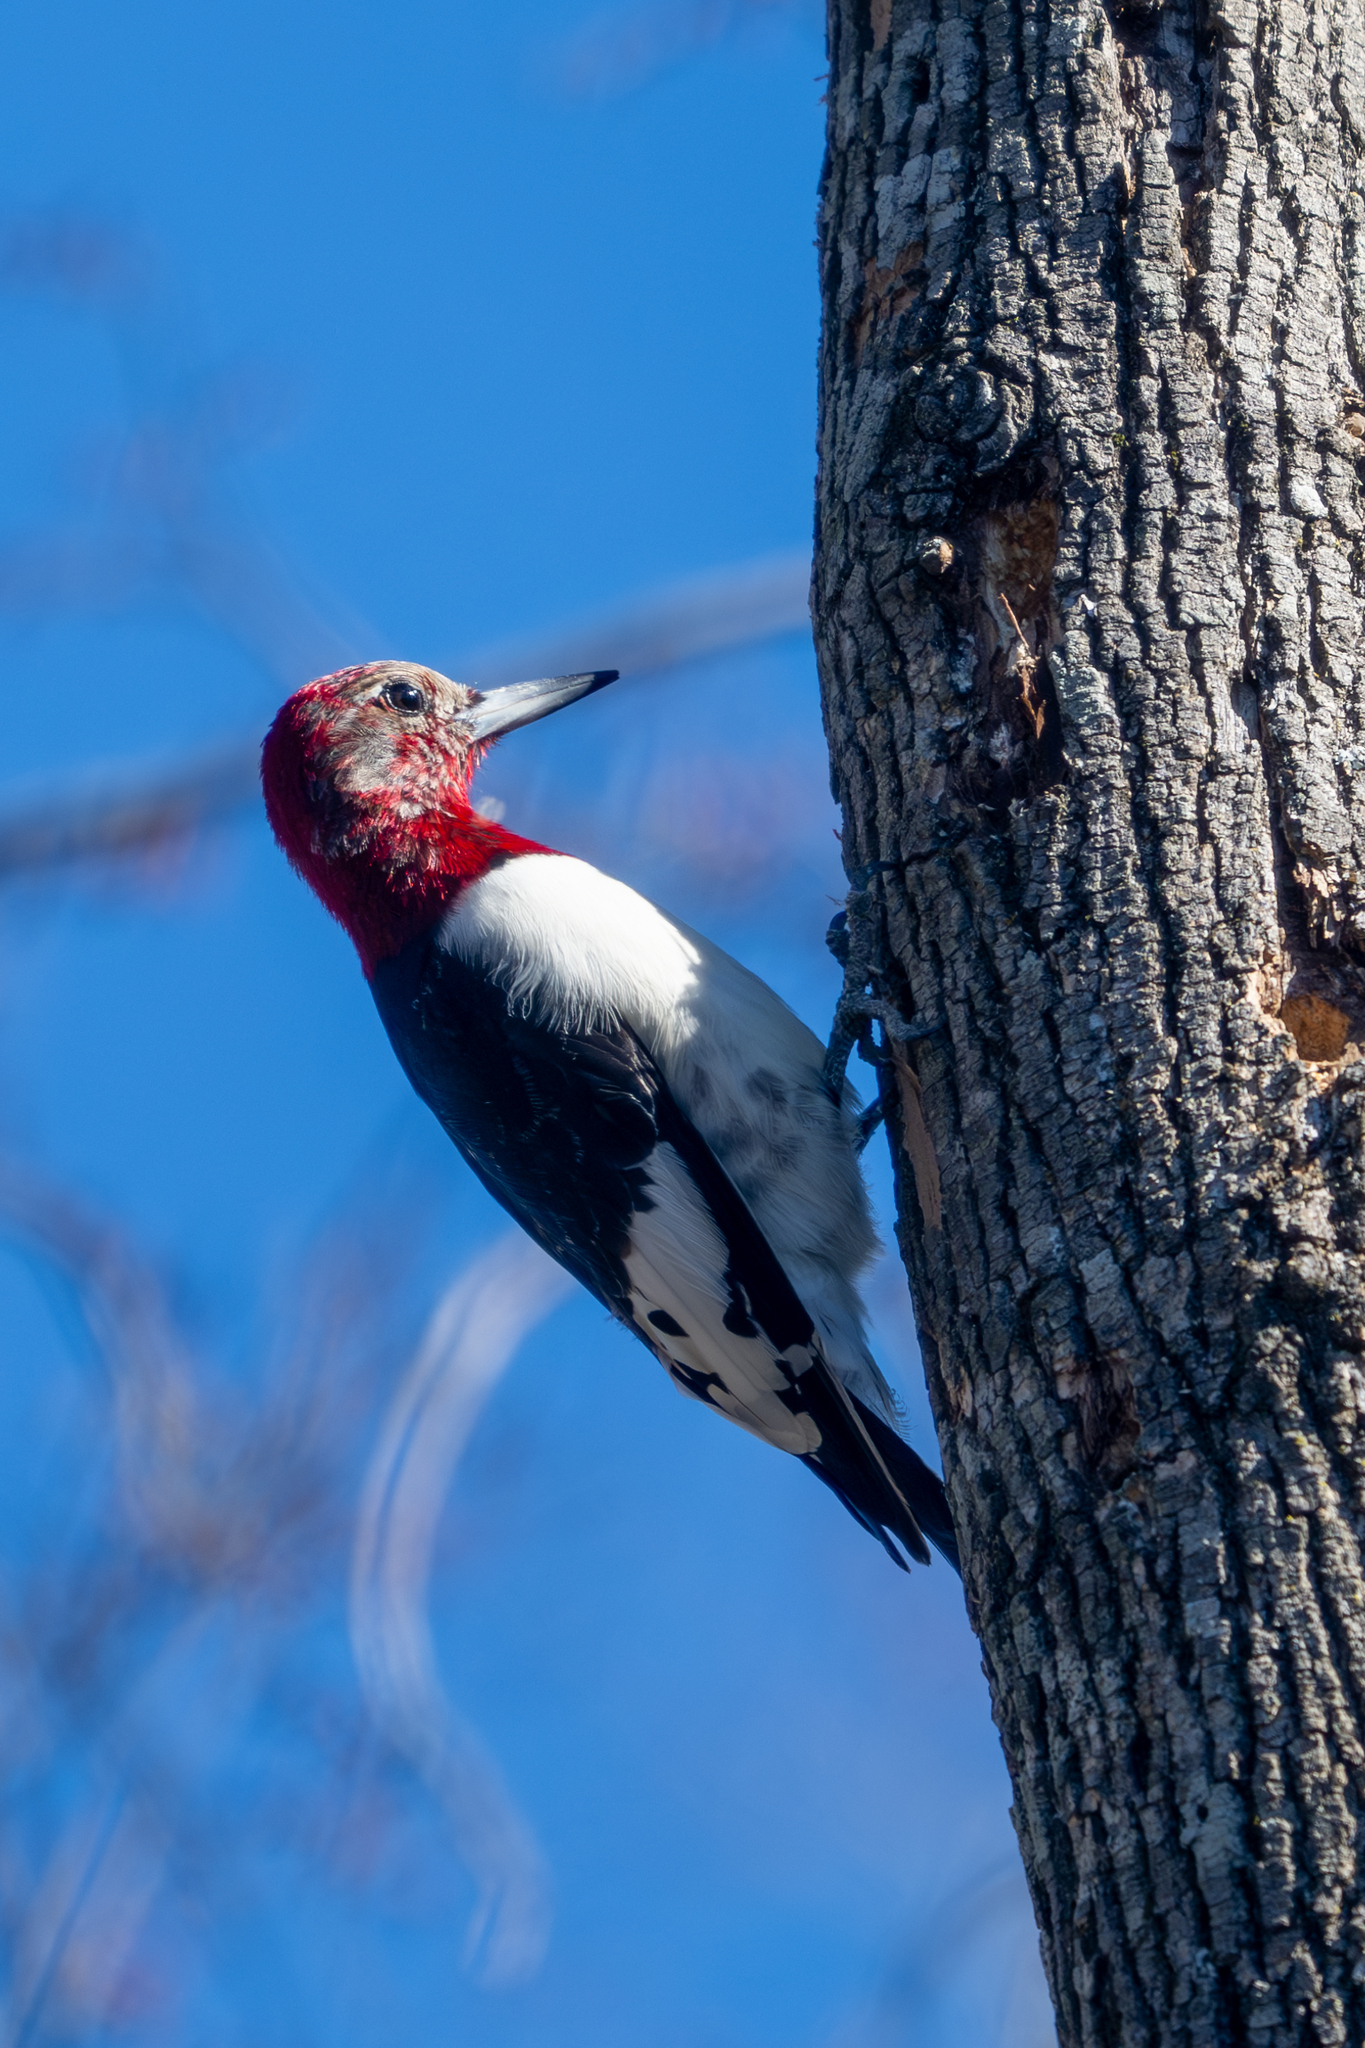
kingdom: Animalia
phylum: Chordata
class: Aves
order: Piciformes
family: Picidae
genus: Melanerpes
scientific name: Melanerpes erythrocephalus
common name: Red-headed woodpecker
